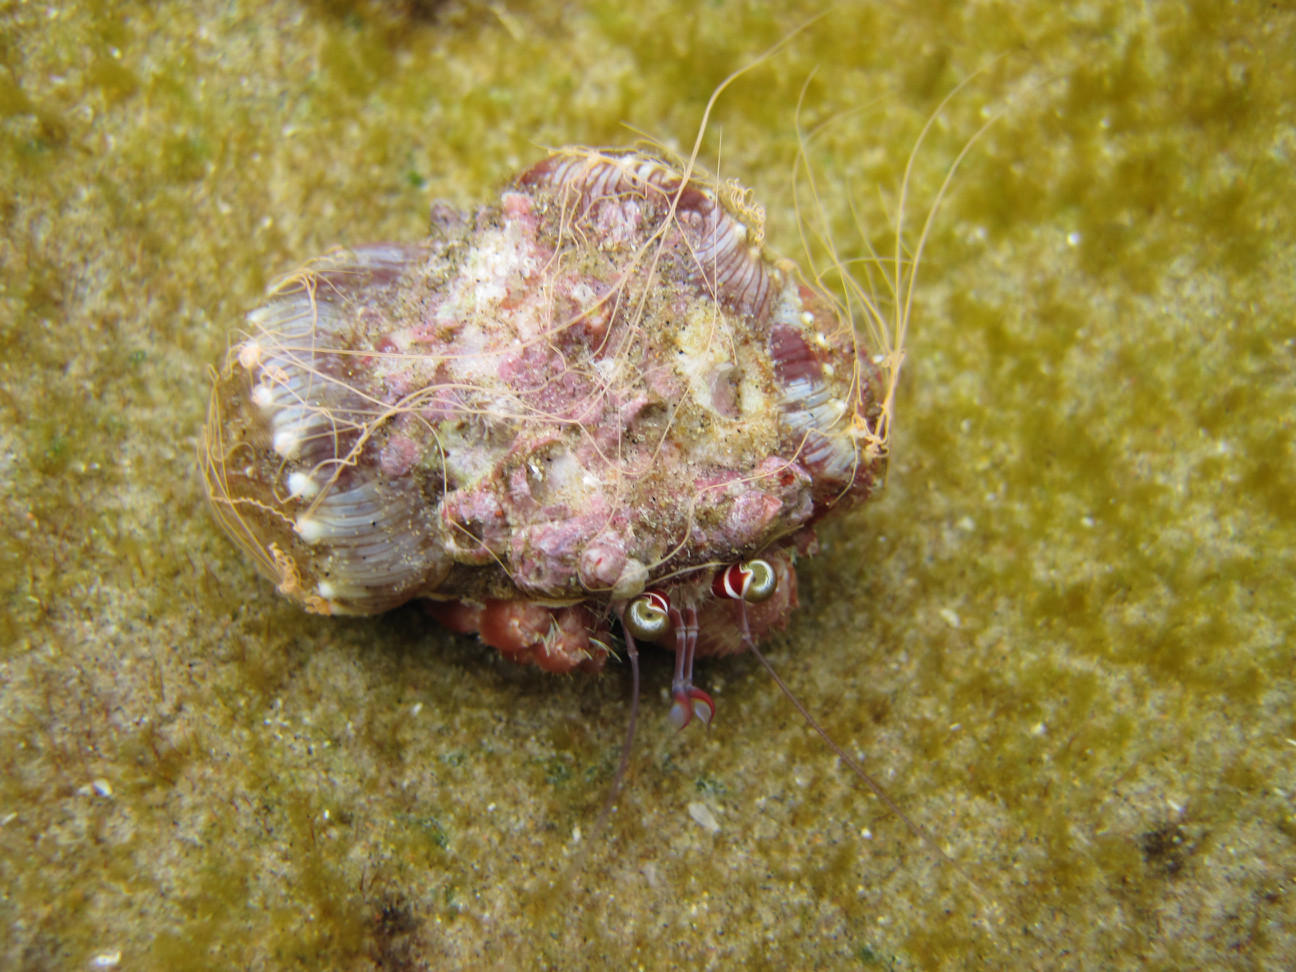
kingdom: Animalia
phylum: Cnidaria
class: Anthozoa
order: Actiniaria
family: Hormathiidae
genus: Calliactis
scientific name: Calliactis polypus
